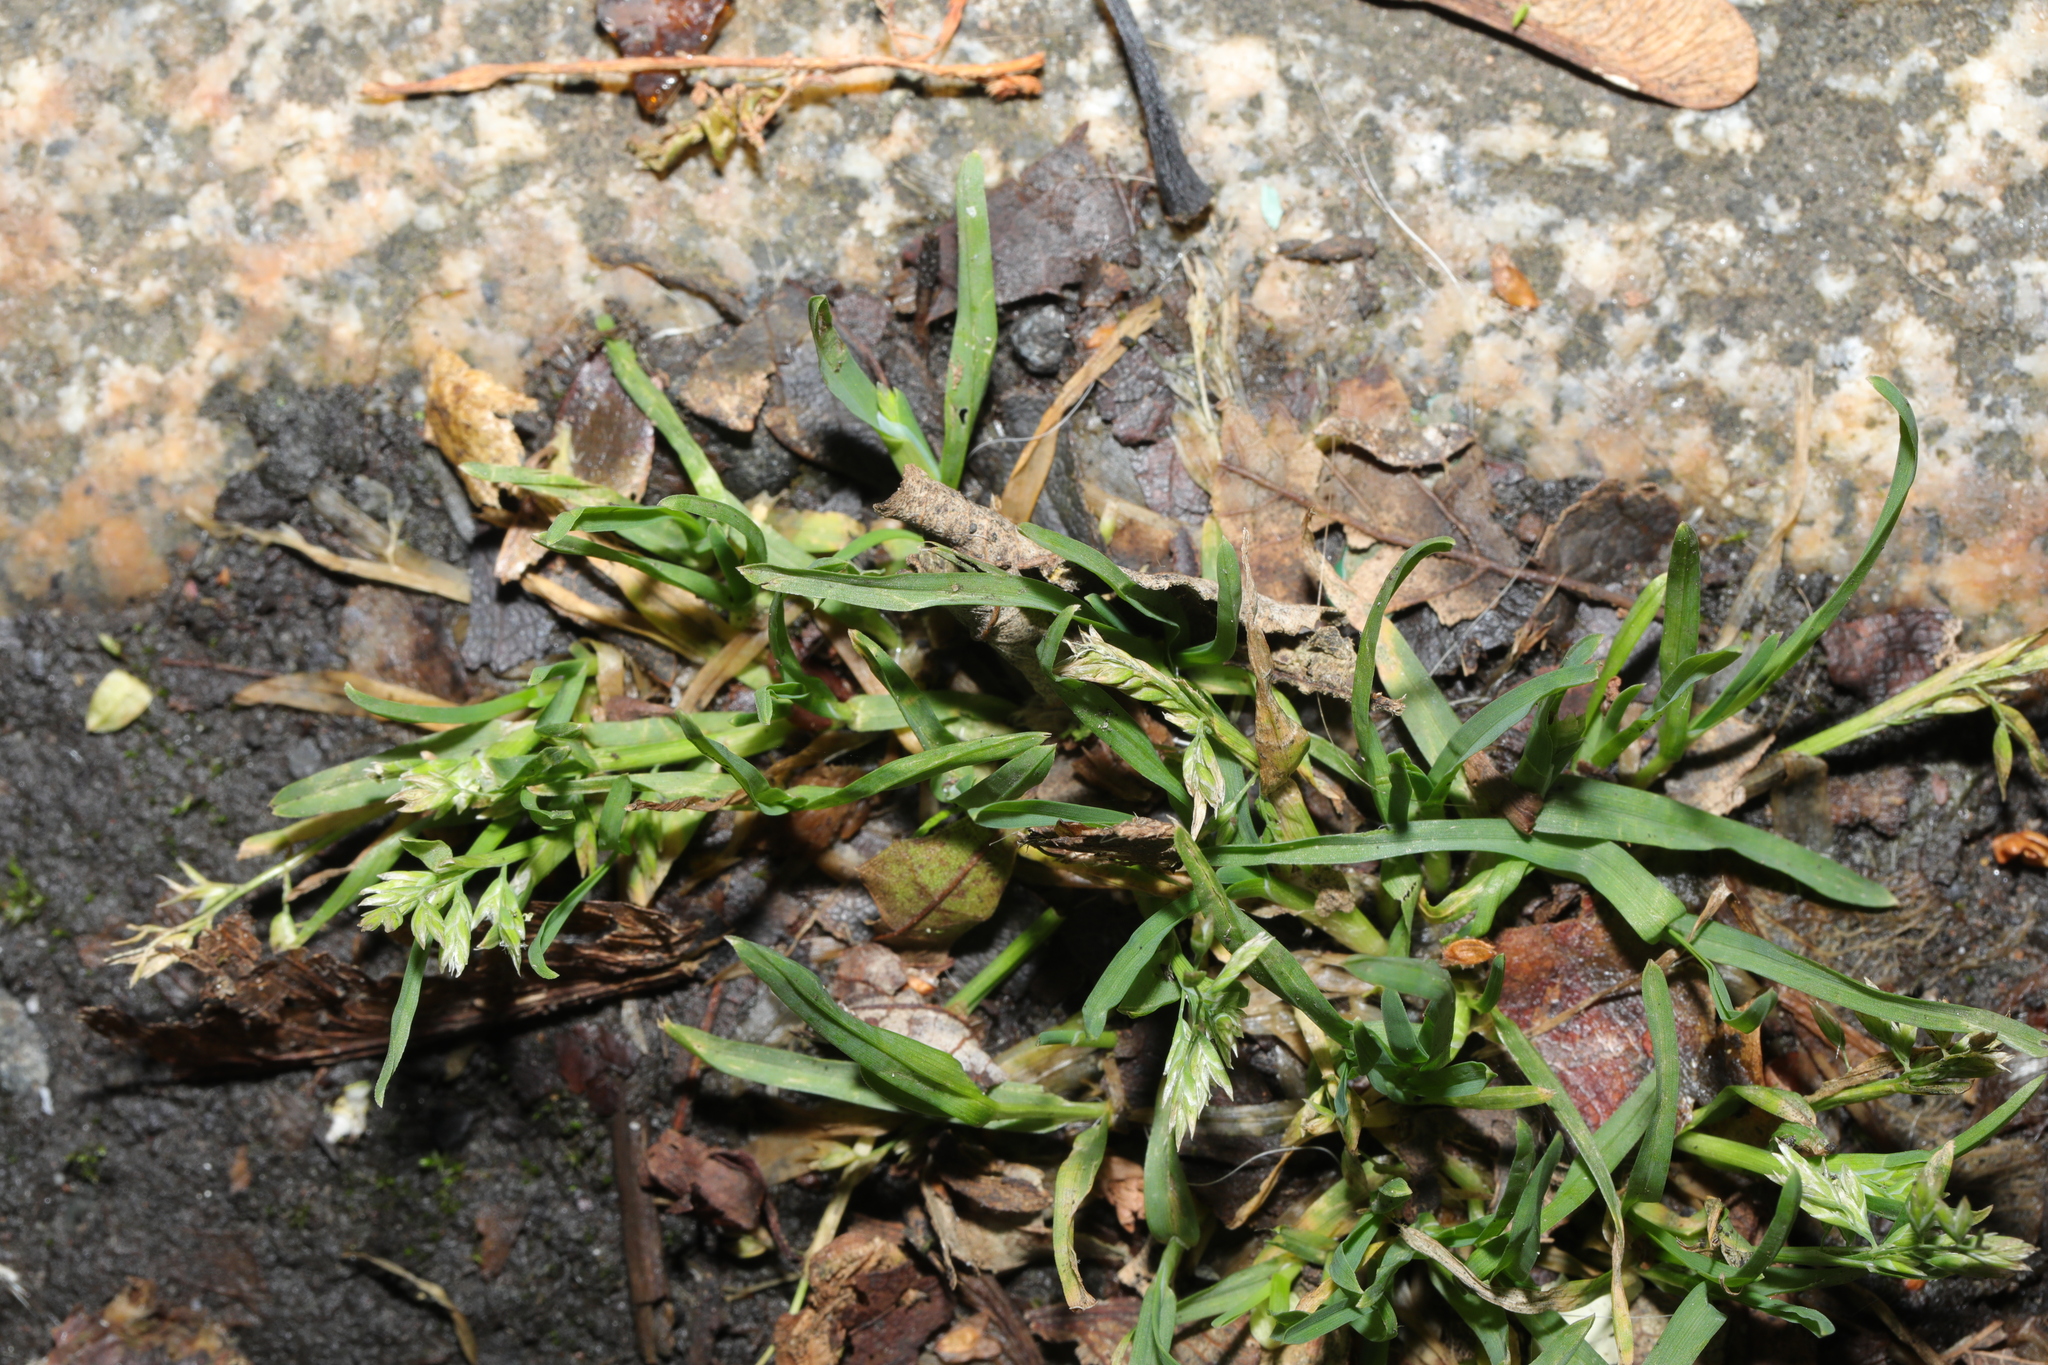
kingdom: Plantae
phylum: Tracheophyta
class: Liliopsida
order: Poales
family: Poaceae
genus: Poa
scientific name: Poa annua
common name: Annual bluegrass
